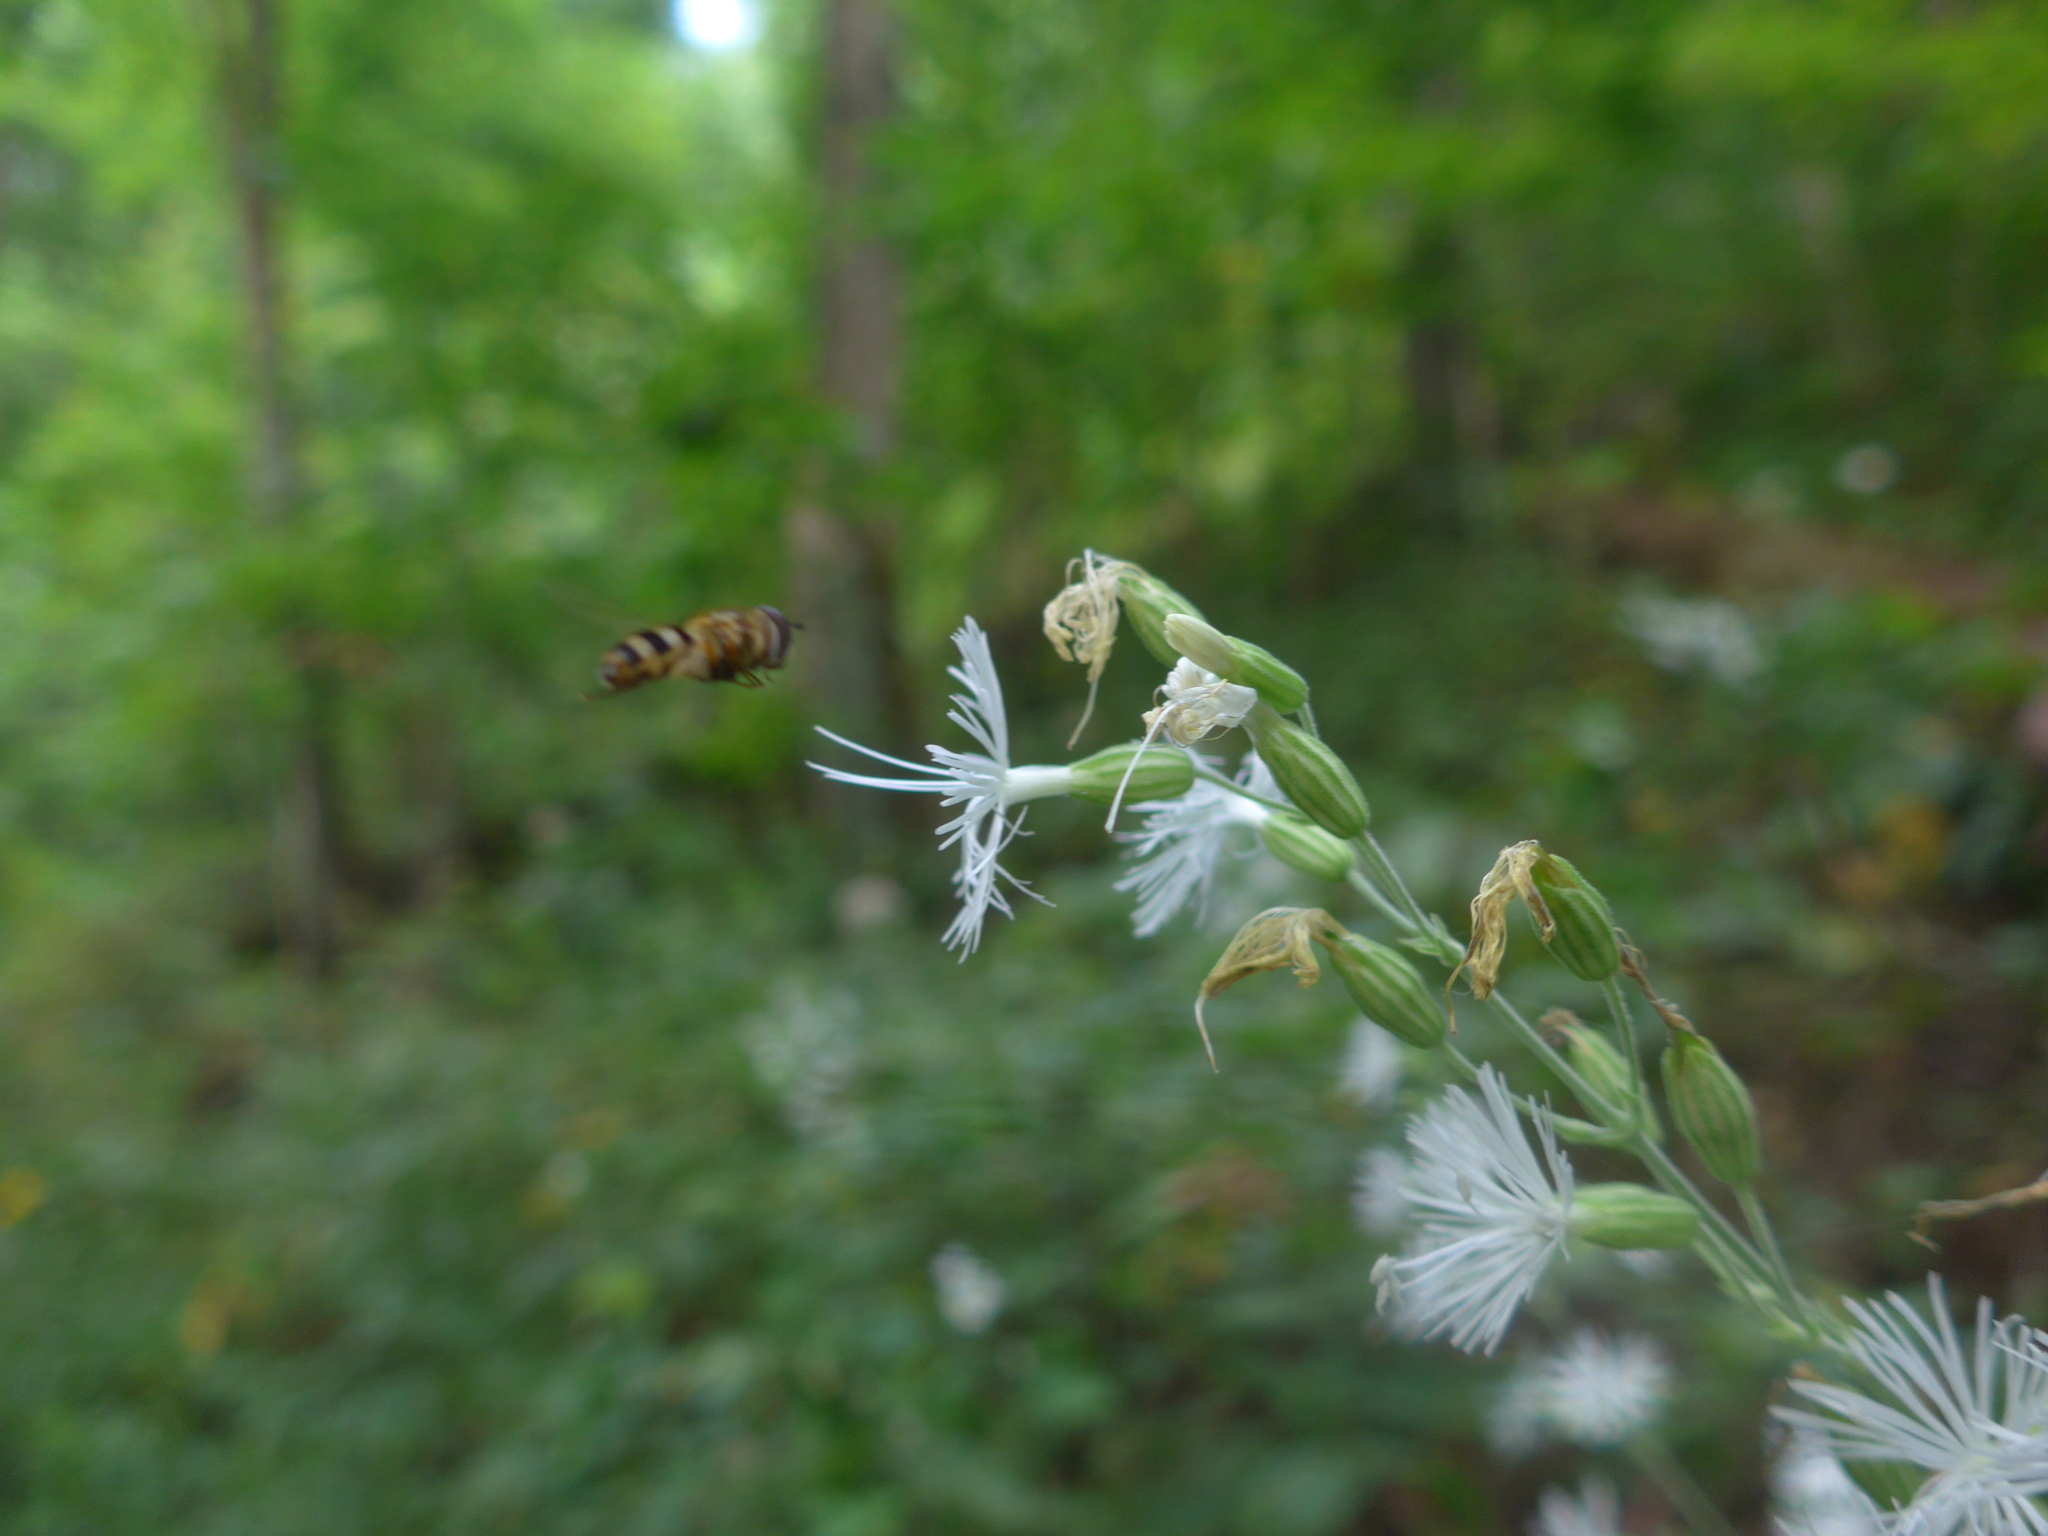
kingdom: Plantae
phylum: Tracheophyta
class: Magnoliopsida
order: Caryophyllales
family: Caryophyllaceae
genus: Silene
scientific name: Silene ovata
